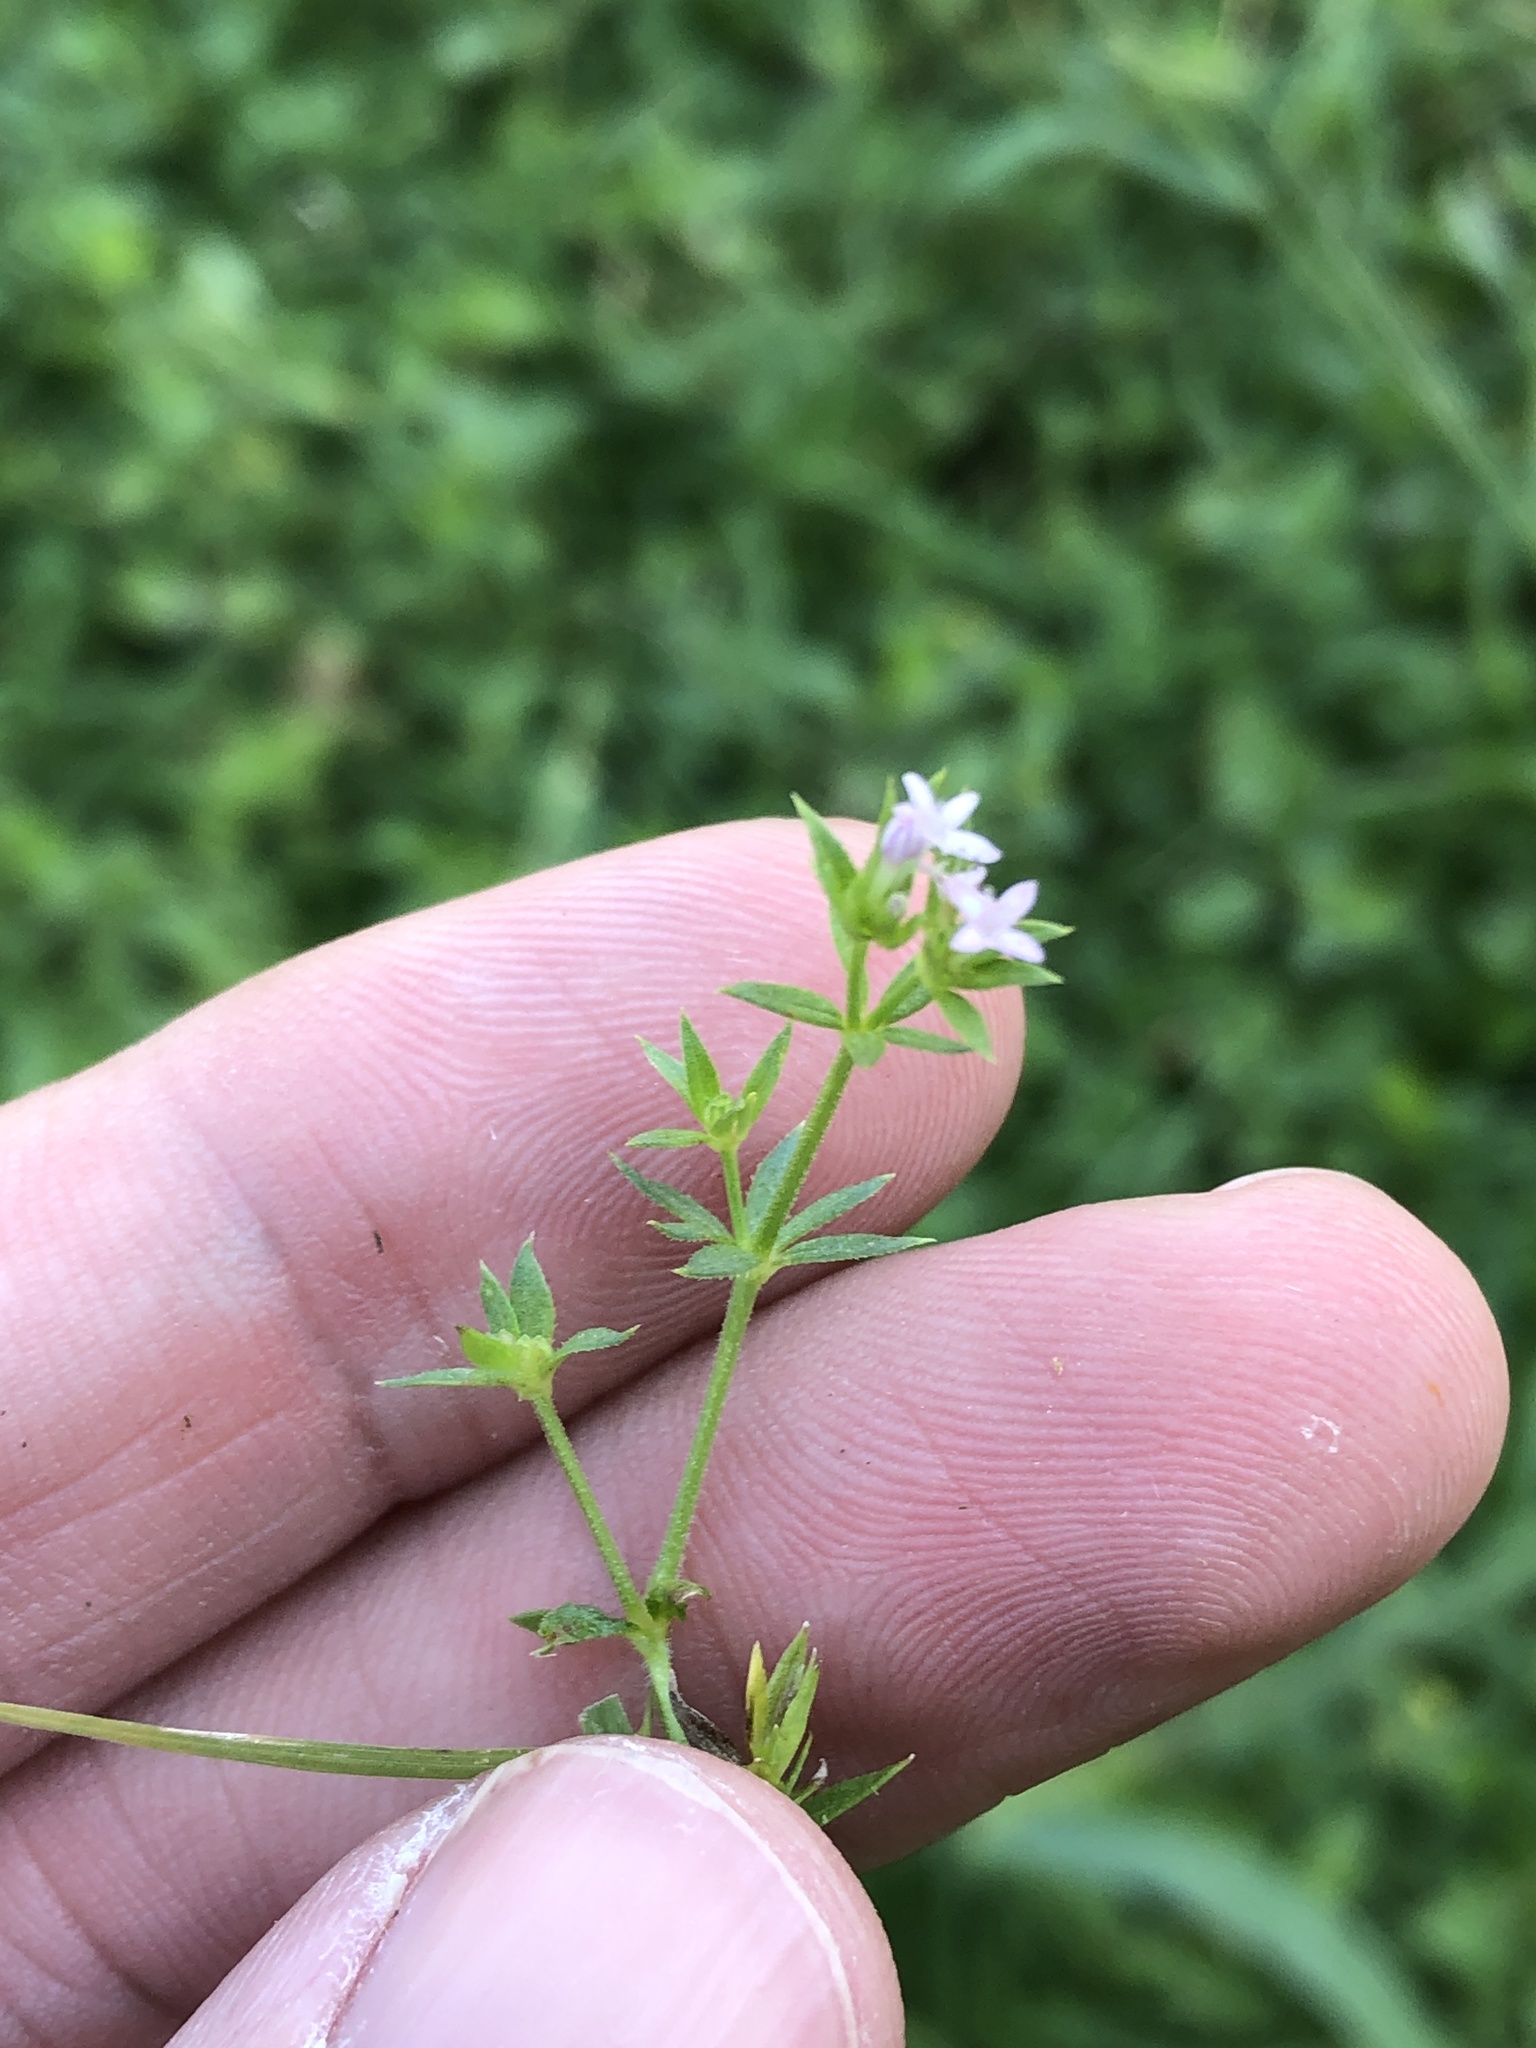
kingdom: Plantae
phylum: Tracheophyta
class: Magnoliopsida
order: Gentianales
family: Rubiaceae
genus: Sherardia
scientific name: Sherardia arvensis
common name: Field madder
